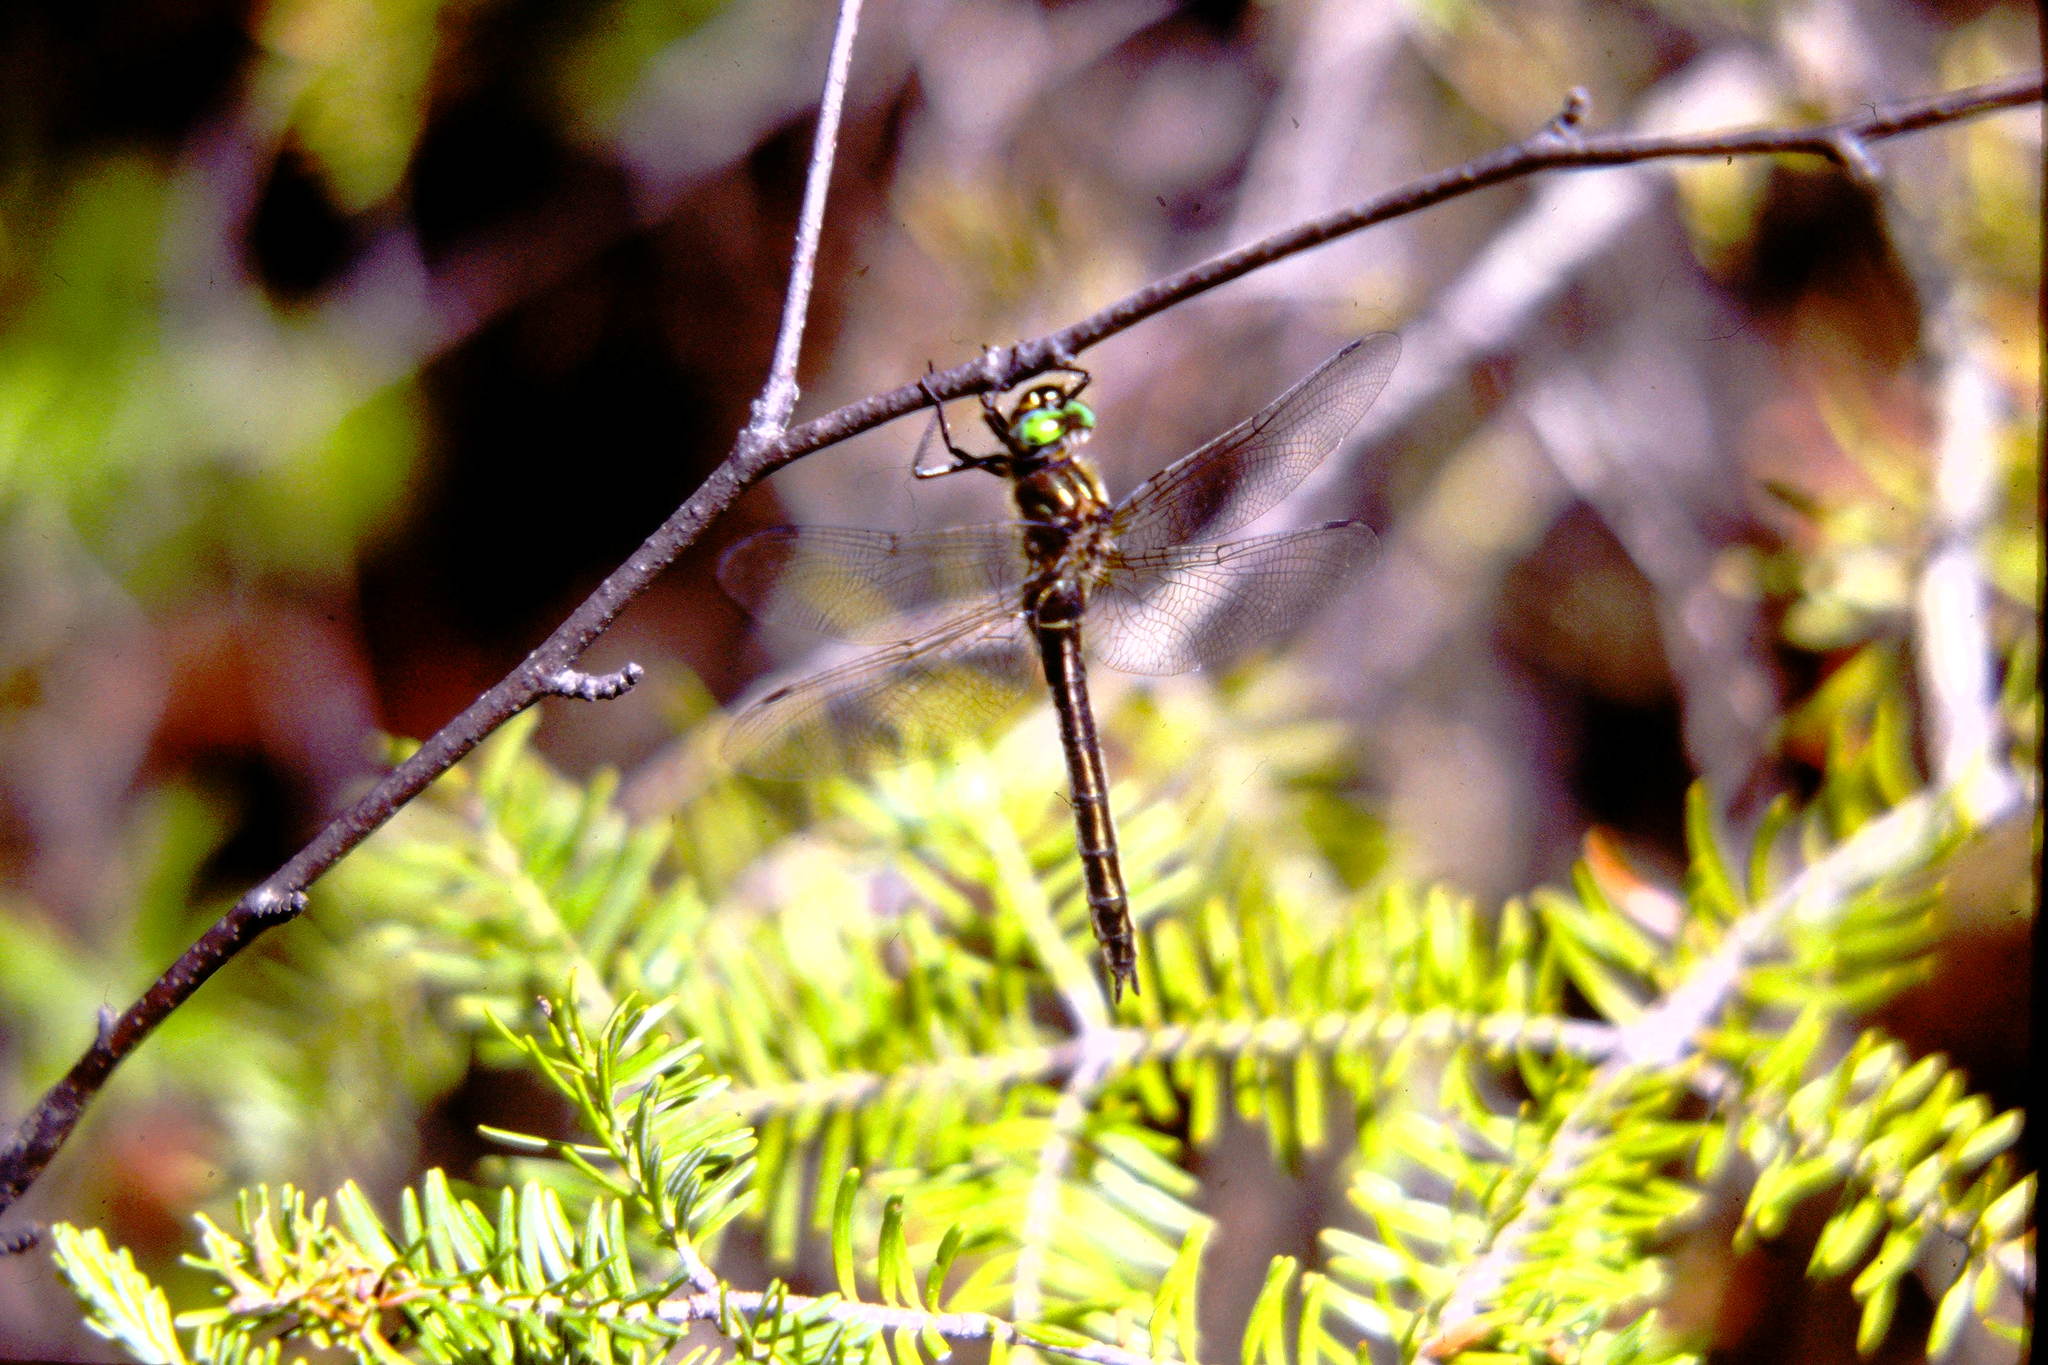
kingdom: Animalia
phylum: Arthropoda
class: Insecta
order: Odonata
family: Corduliidae
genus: Cordulia
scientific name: Cordulia shurtleffii
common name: American emerald
